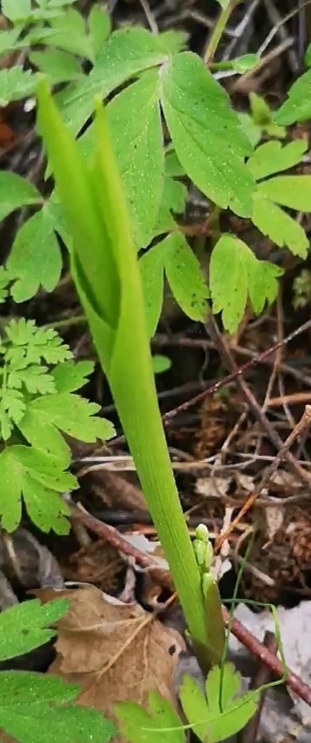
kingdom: Plantae
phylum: Tracheophyta
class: Liliopsida
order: Asparagales
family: Asparagaceae
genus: Convallaria
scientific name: Convallaria majalis
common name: Lily-of-the-valley
